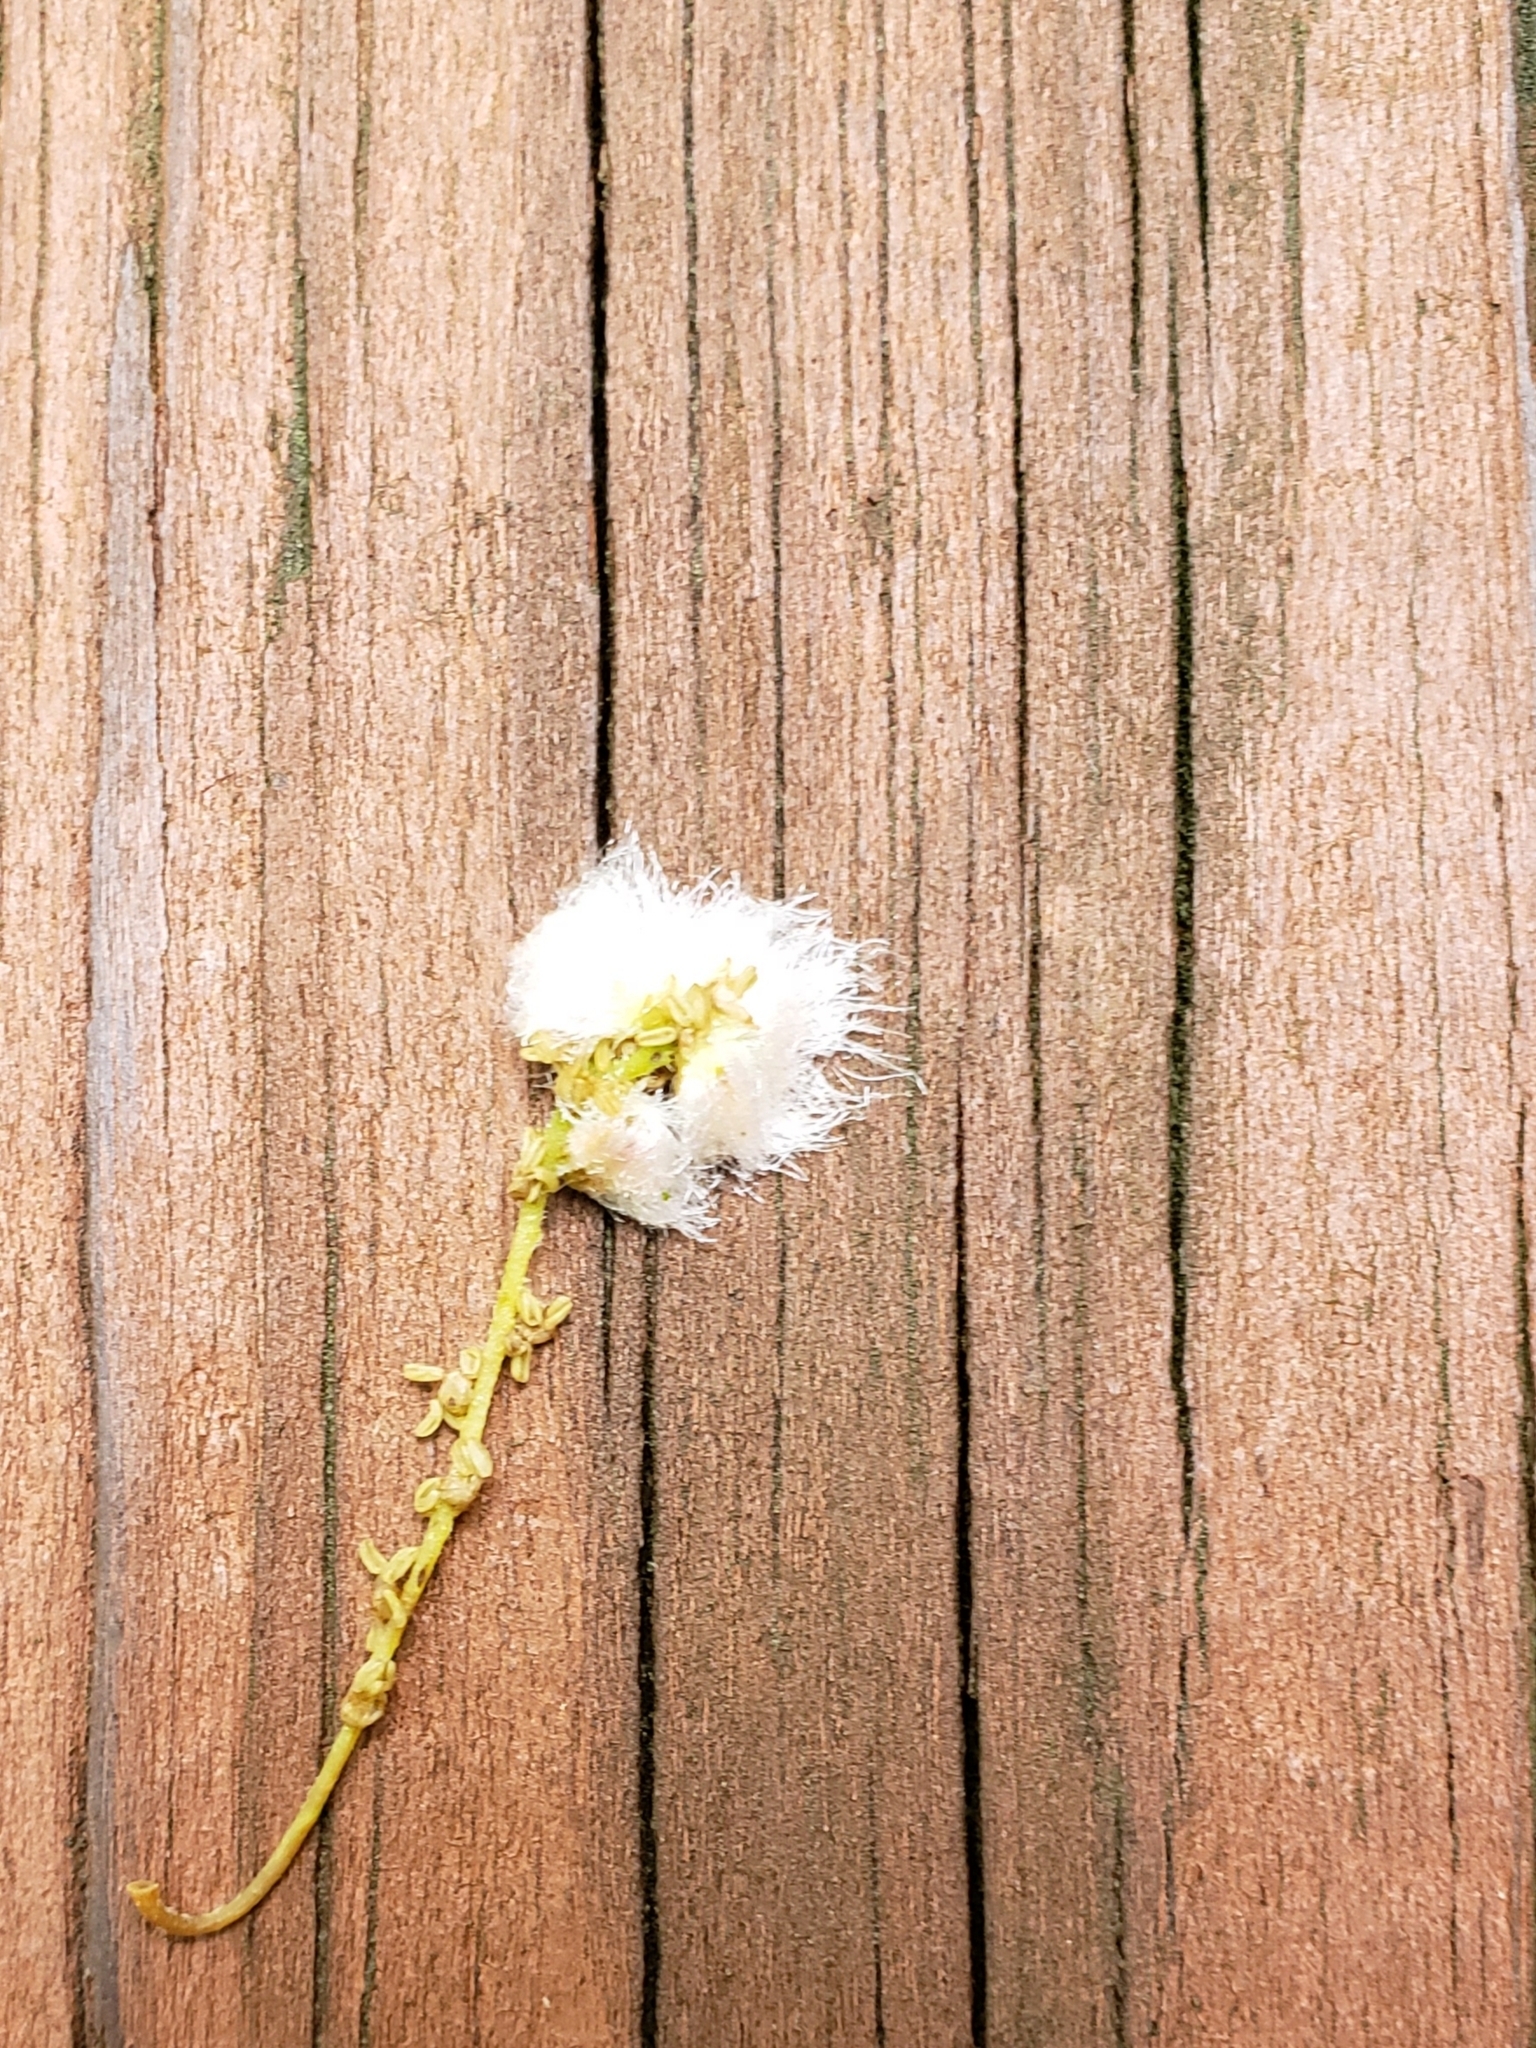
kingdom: Animalia
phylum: Arthropoda
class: Insecta
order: Hymenoptera
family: Cynipidae
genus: Callirhytis
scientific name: Callirhytis
